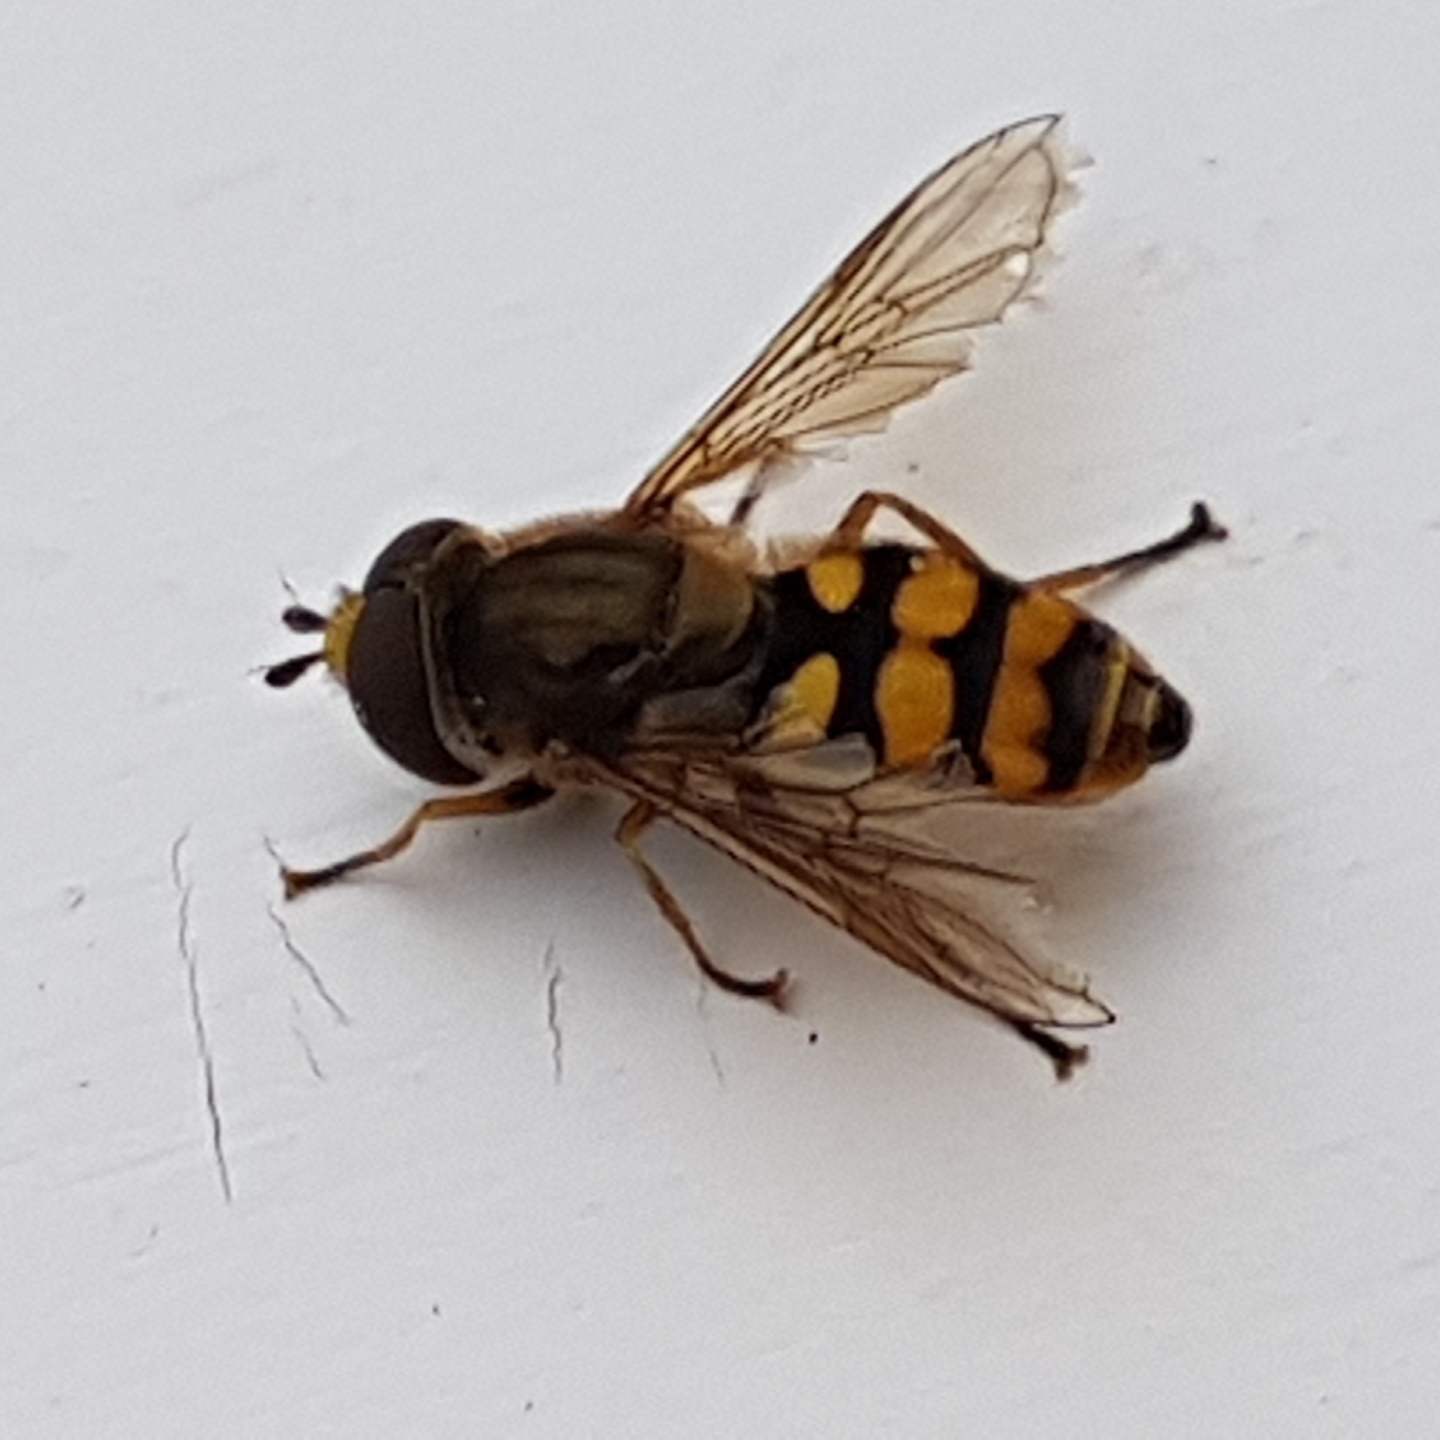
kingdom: Animalia
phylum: Arthropoda
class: Insecta
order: Diptera
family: Syrphidae
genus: Eupeodes
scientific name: Eupeodes corollae
